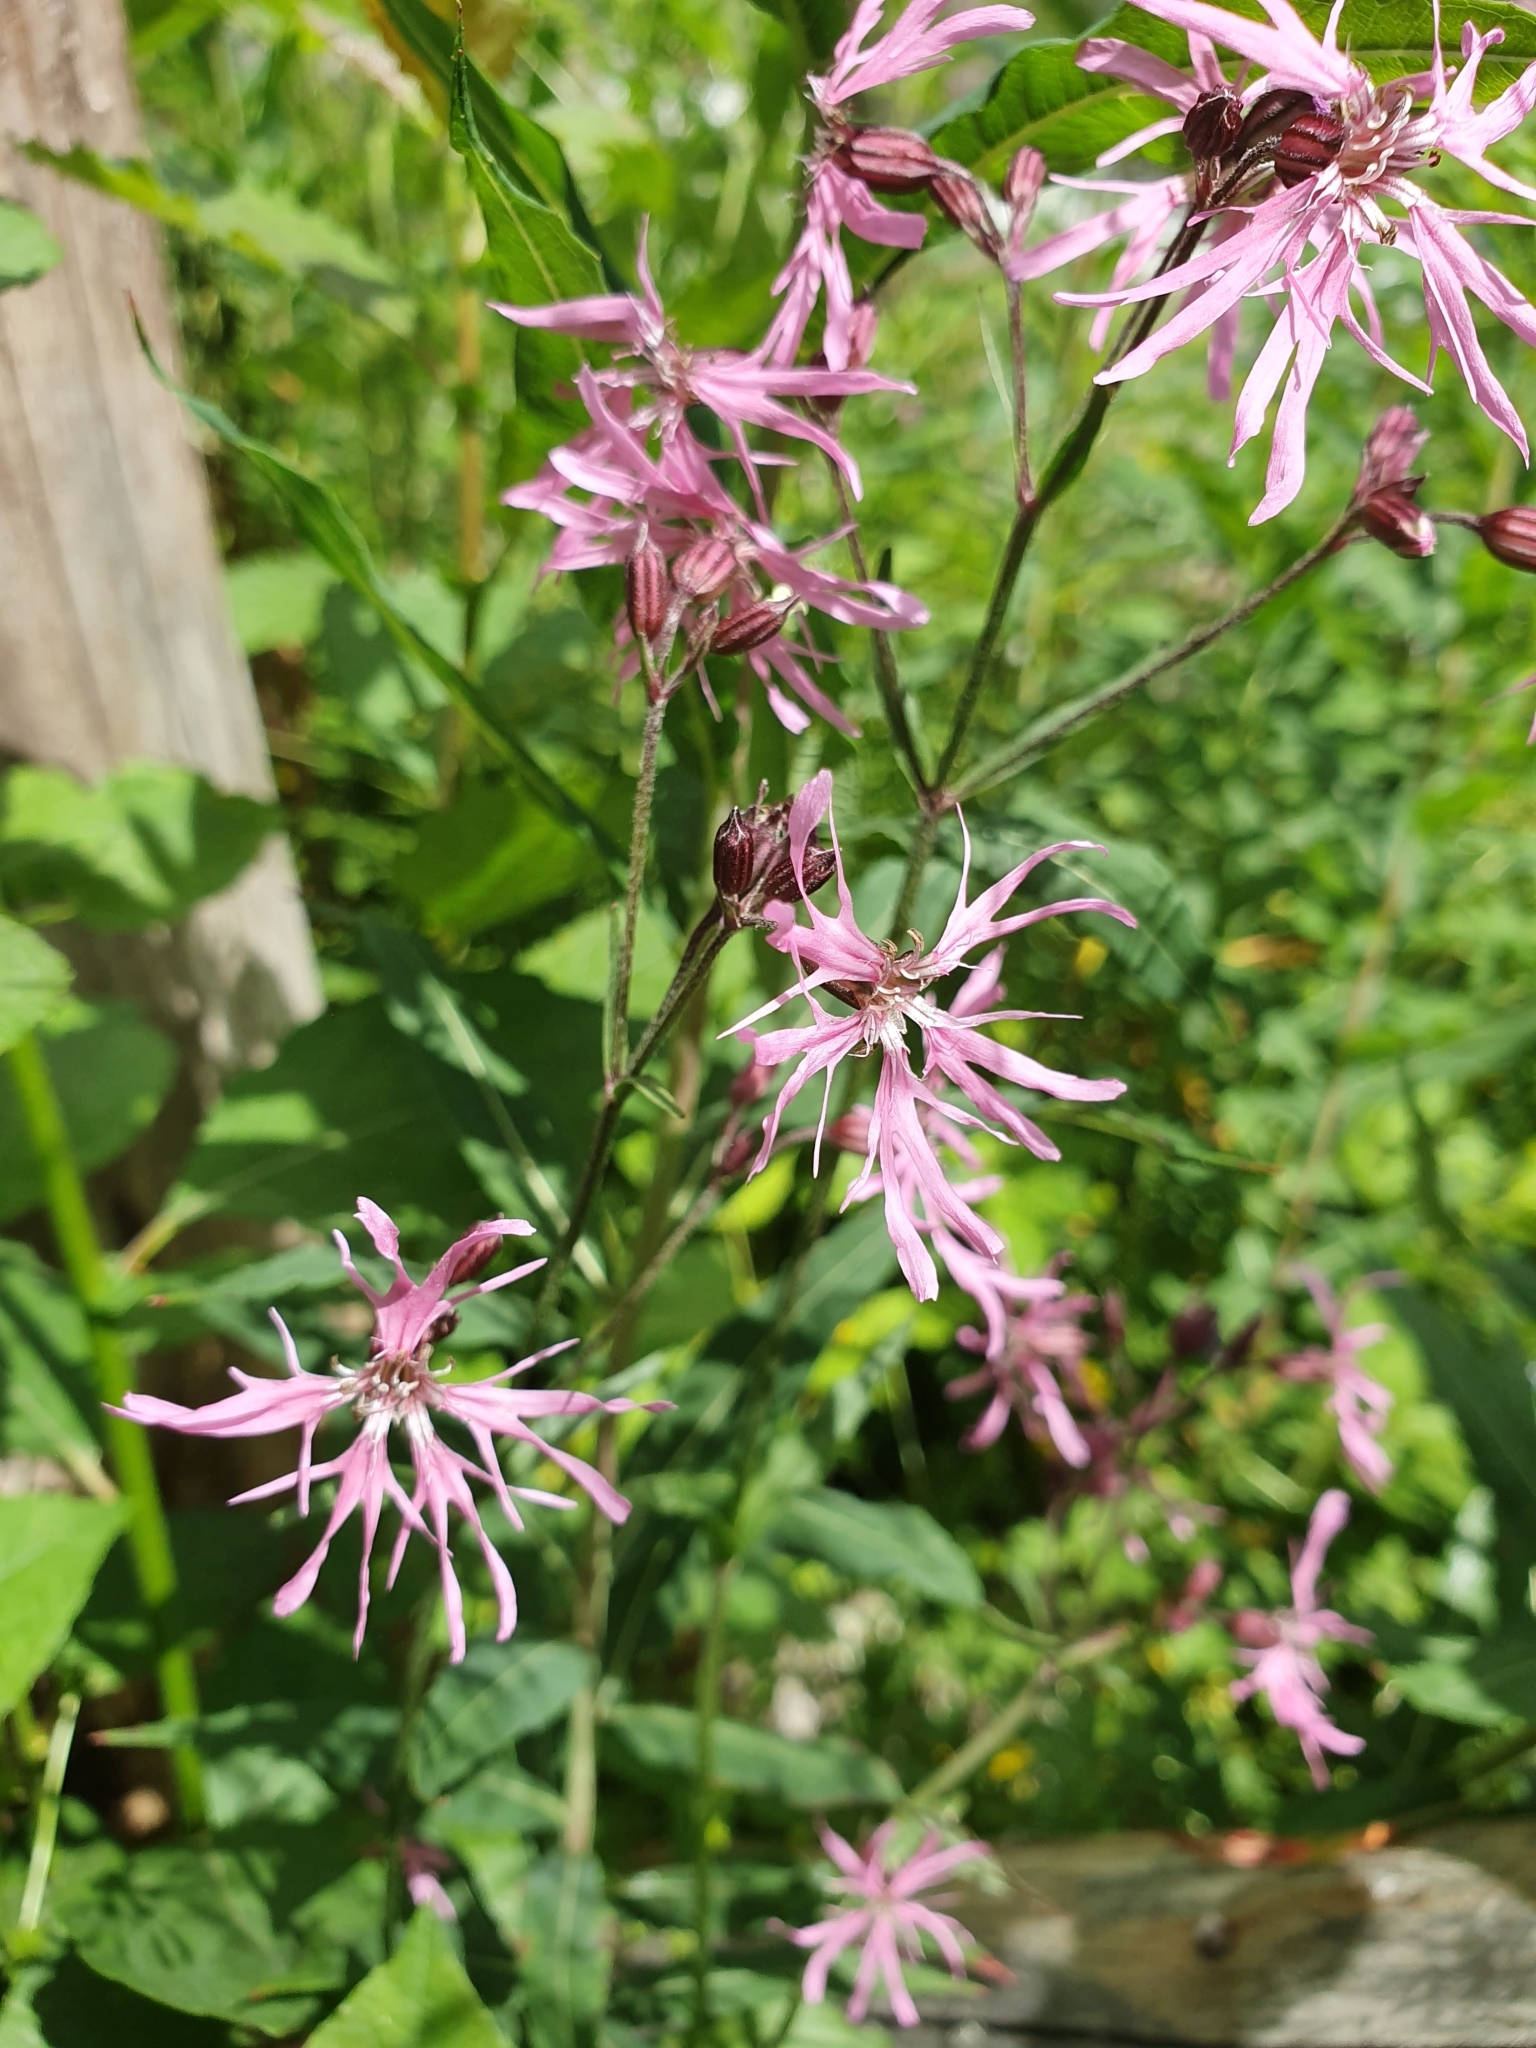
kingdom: Plantae
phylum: Tracheophyta
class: Magnoliopsida
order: Caryophyllales
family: Caryophyllaceae
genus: Silene
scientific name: Silene flos-cuculi
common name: Ragged-robin
